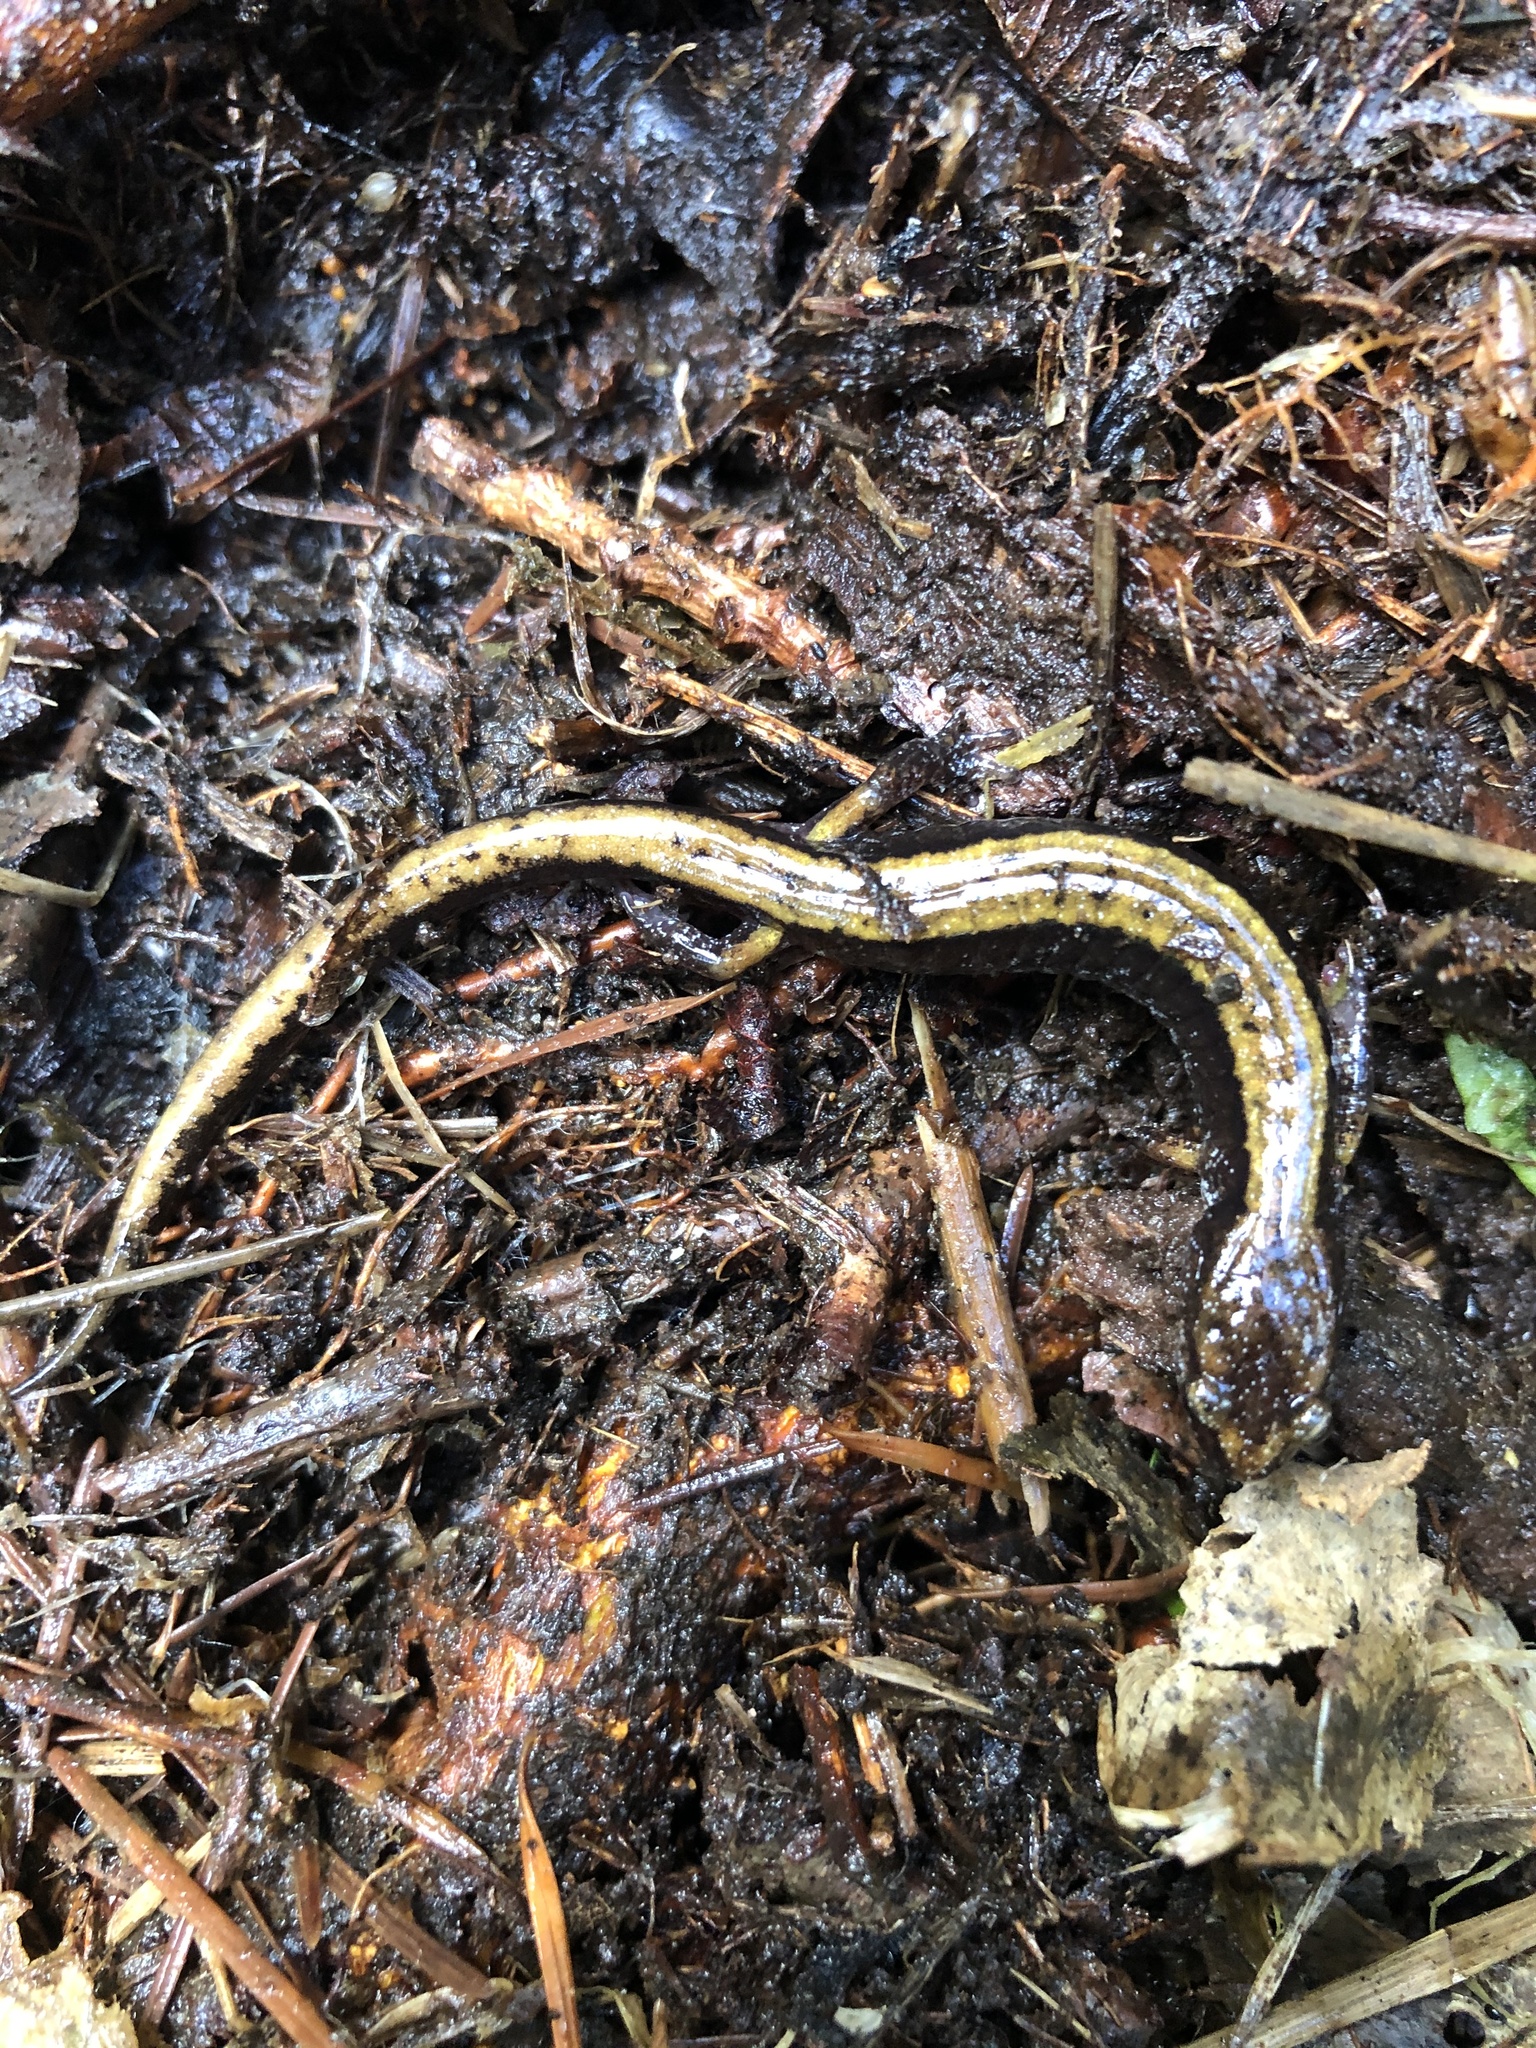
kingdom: Animalia
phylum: Chordata
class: Amphibia
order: Caudata
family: Plethodontidae
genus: Plethodon
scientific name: Plethodon dunni
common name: Dunn's salamander
